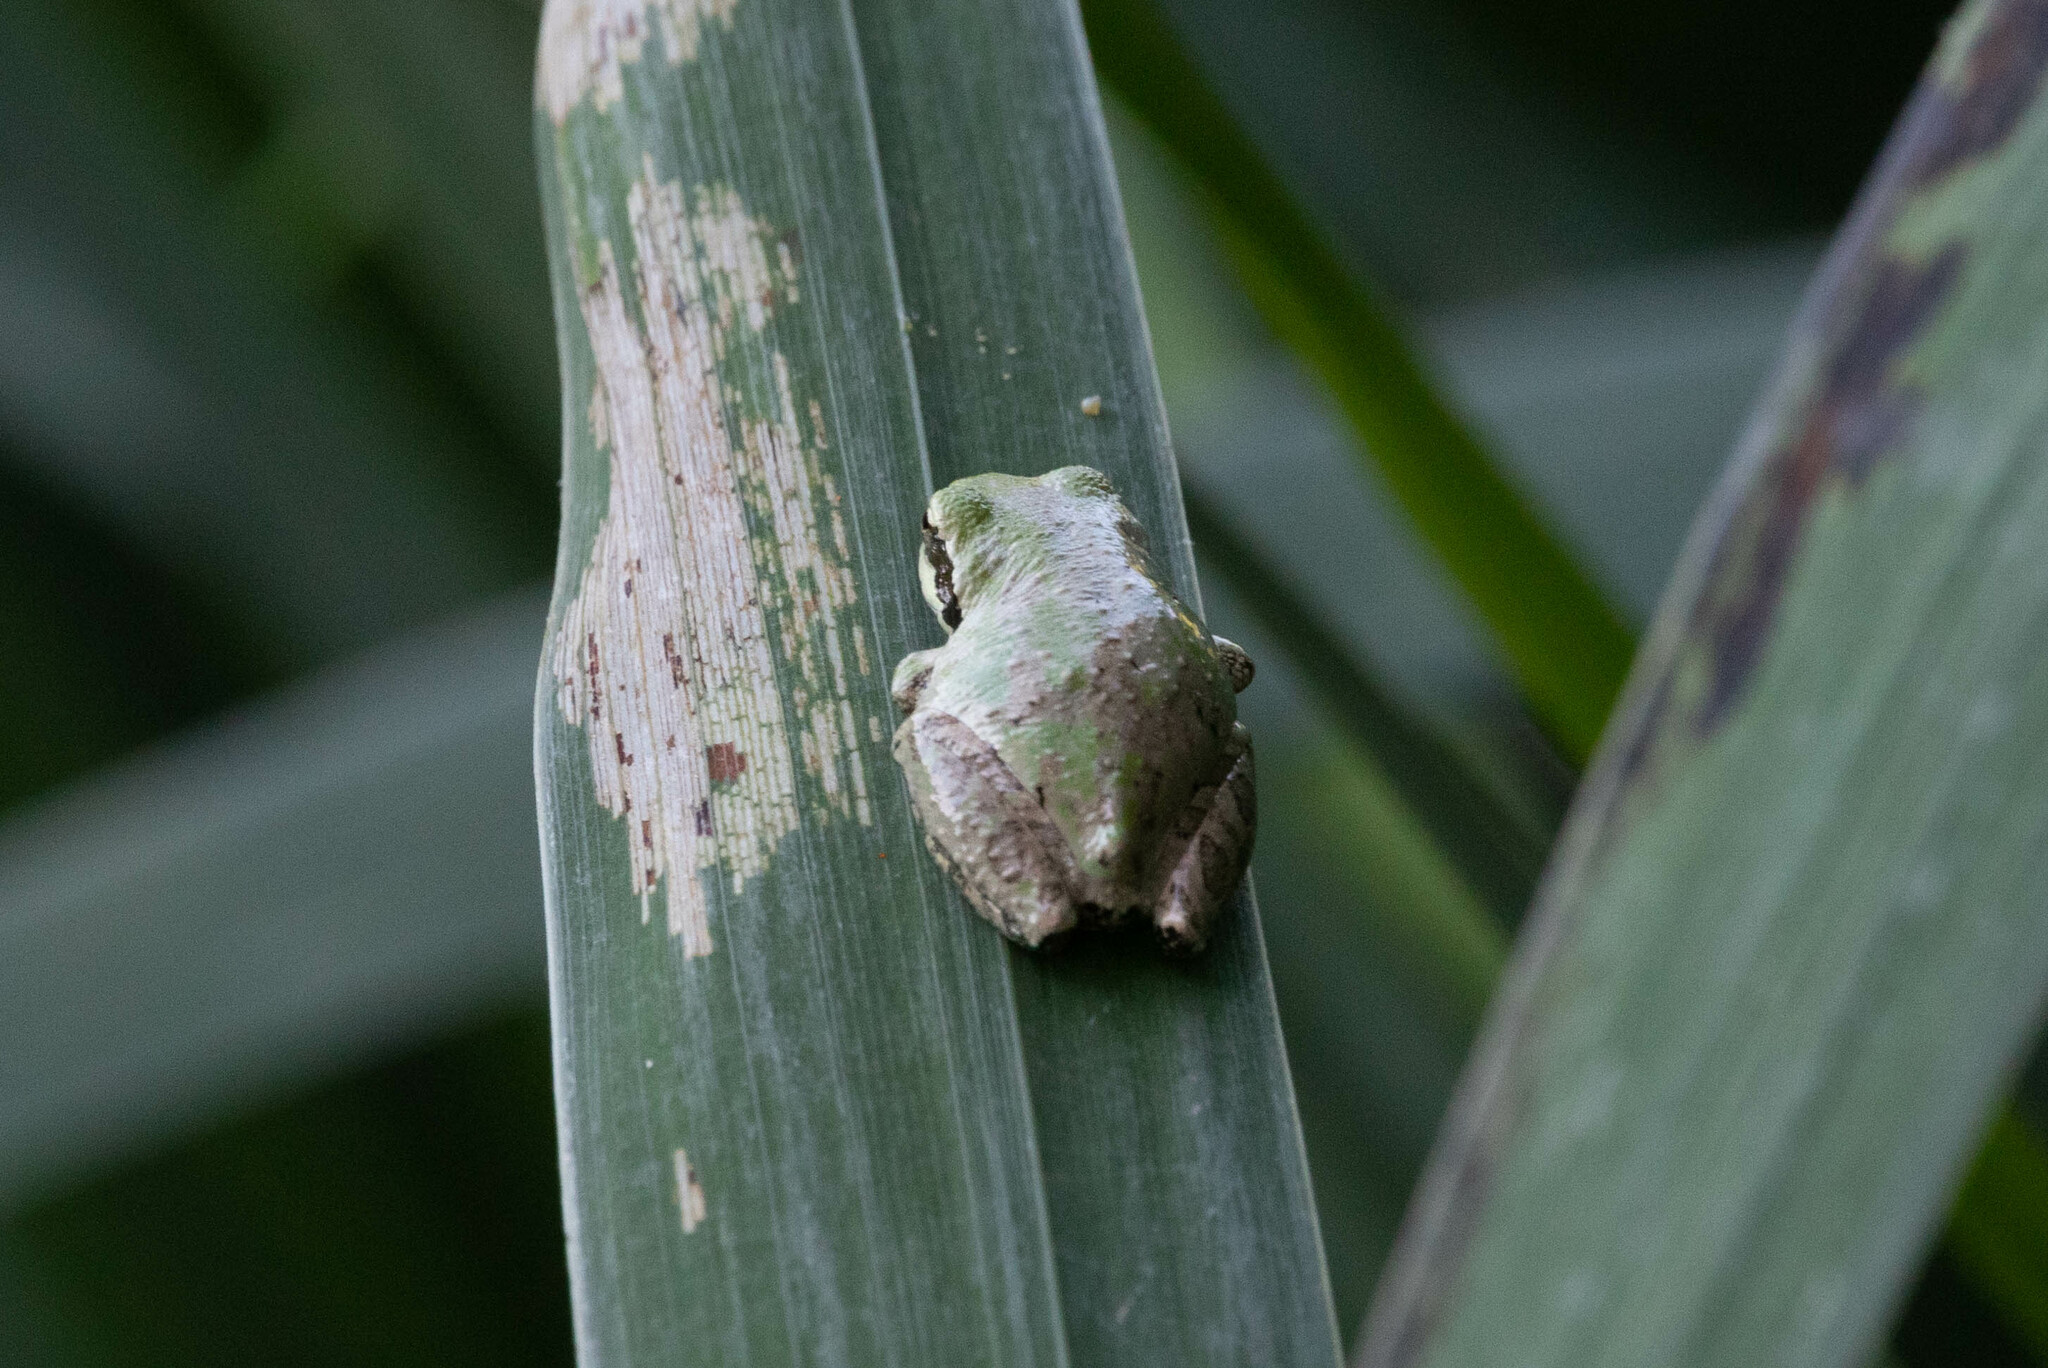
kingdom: Animalia
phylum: Chordata
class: Amphibia
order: Anura
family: Hylidae
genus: Pseudacris
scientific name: Pseudacris regilla
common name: Pacific chorus frog
